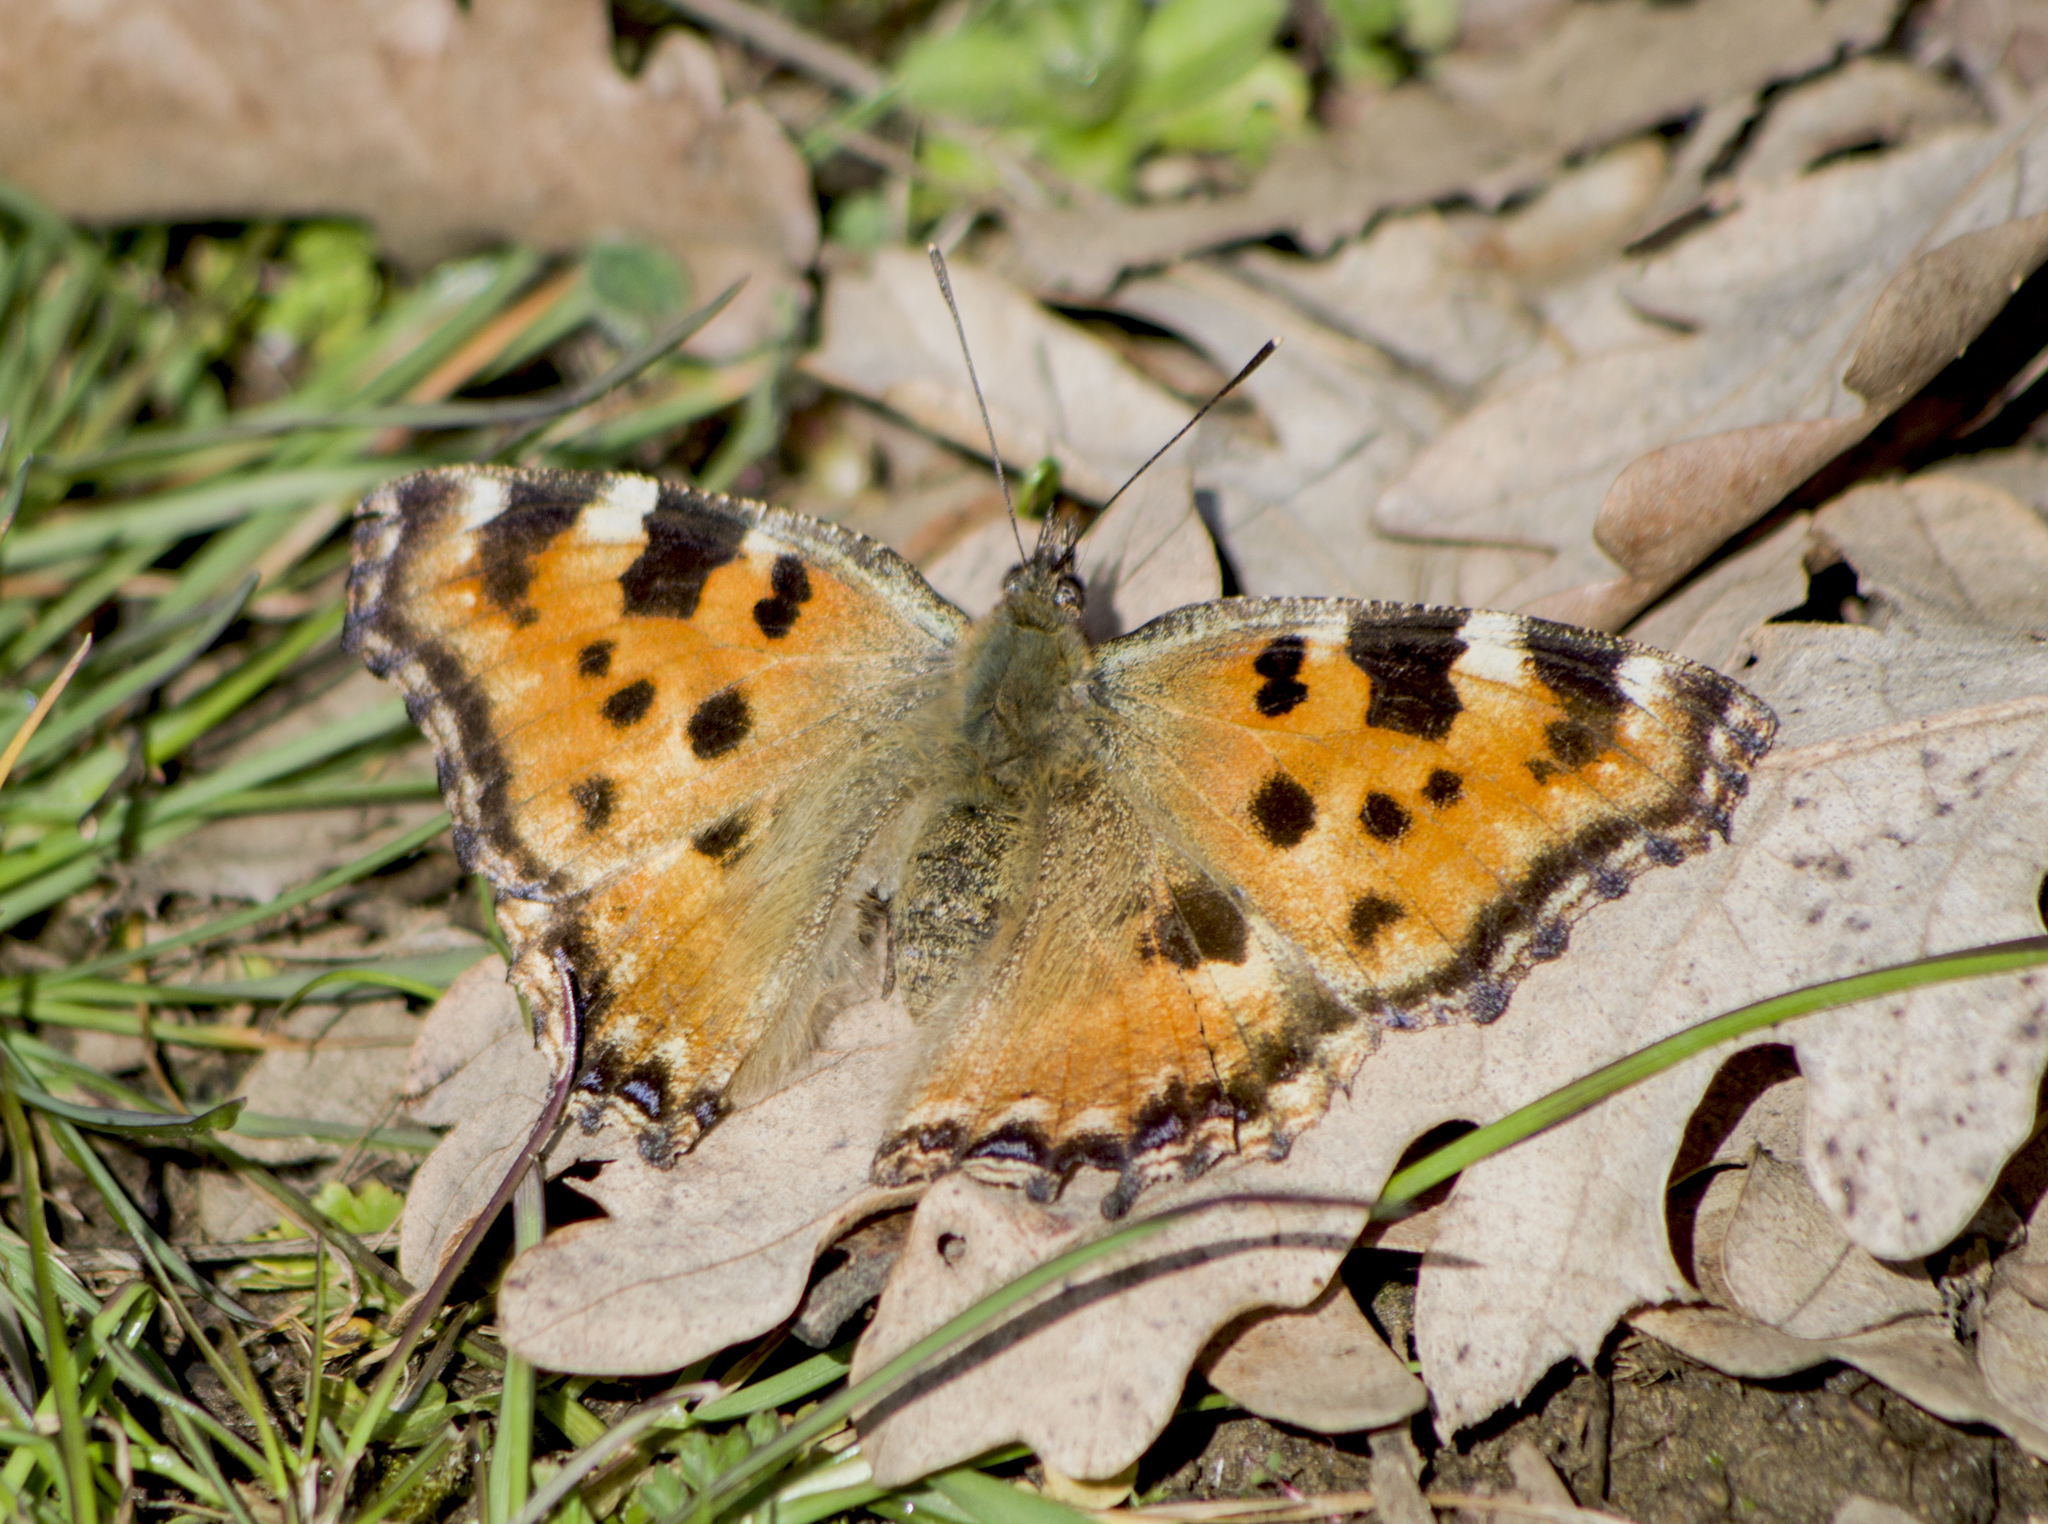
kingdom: Animalia
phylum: Arthropoda
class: Insecta
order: Lepidoptera
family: Nymphalidae
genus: Nymphalis
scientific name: Nymphalis polychloros
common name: Large tortoiseshell
